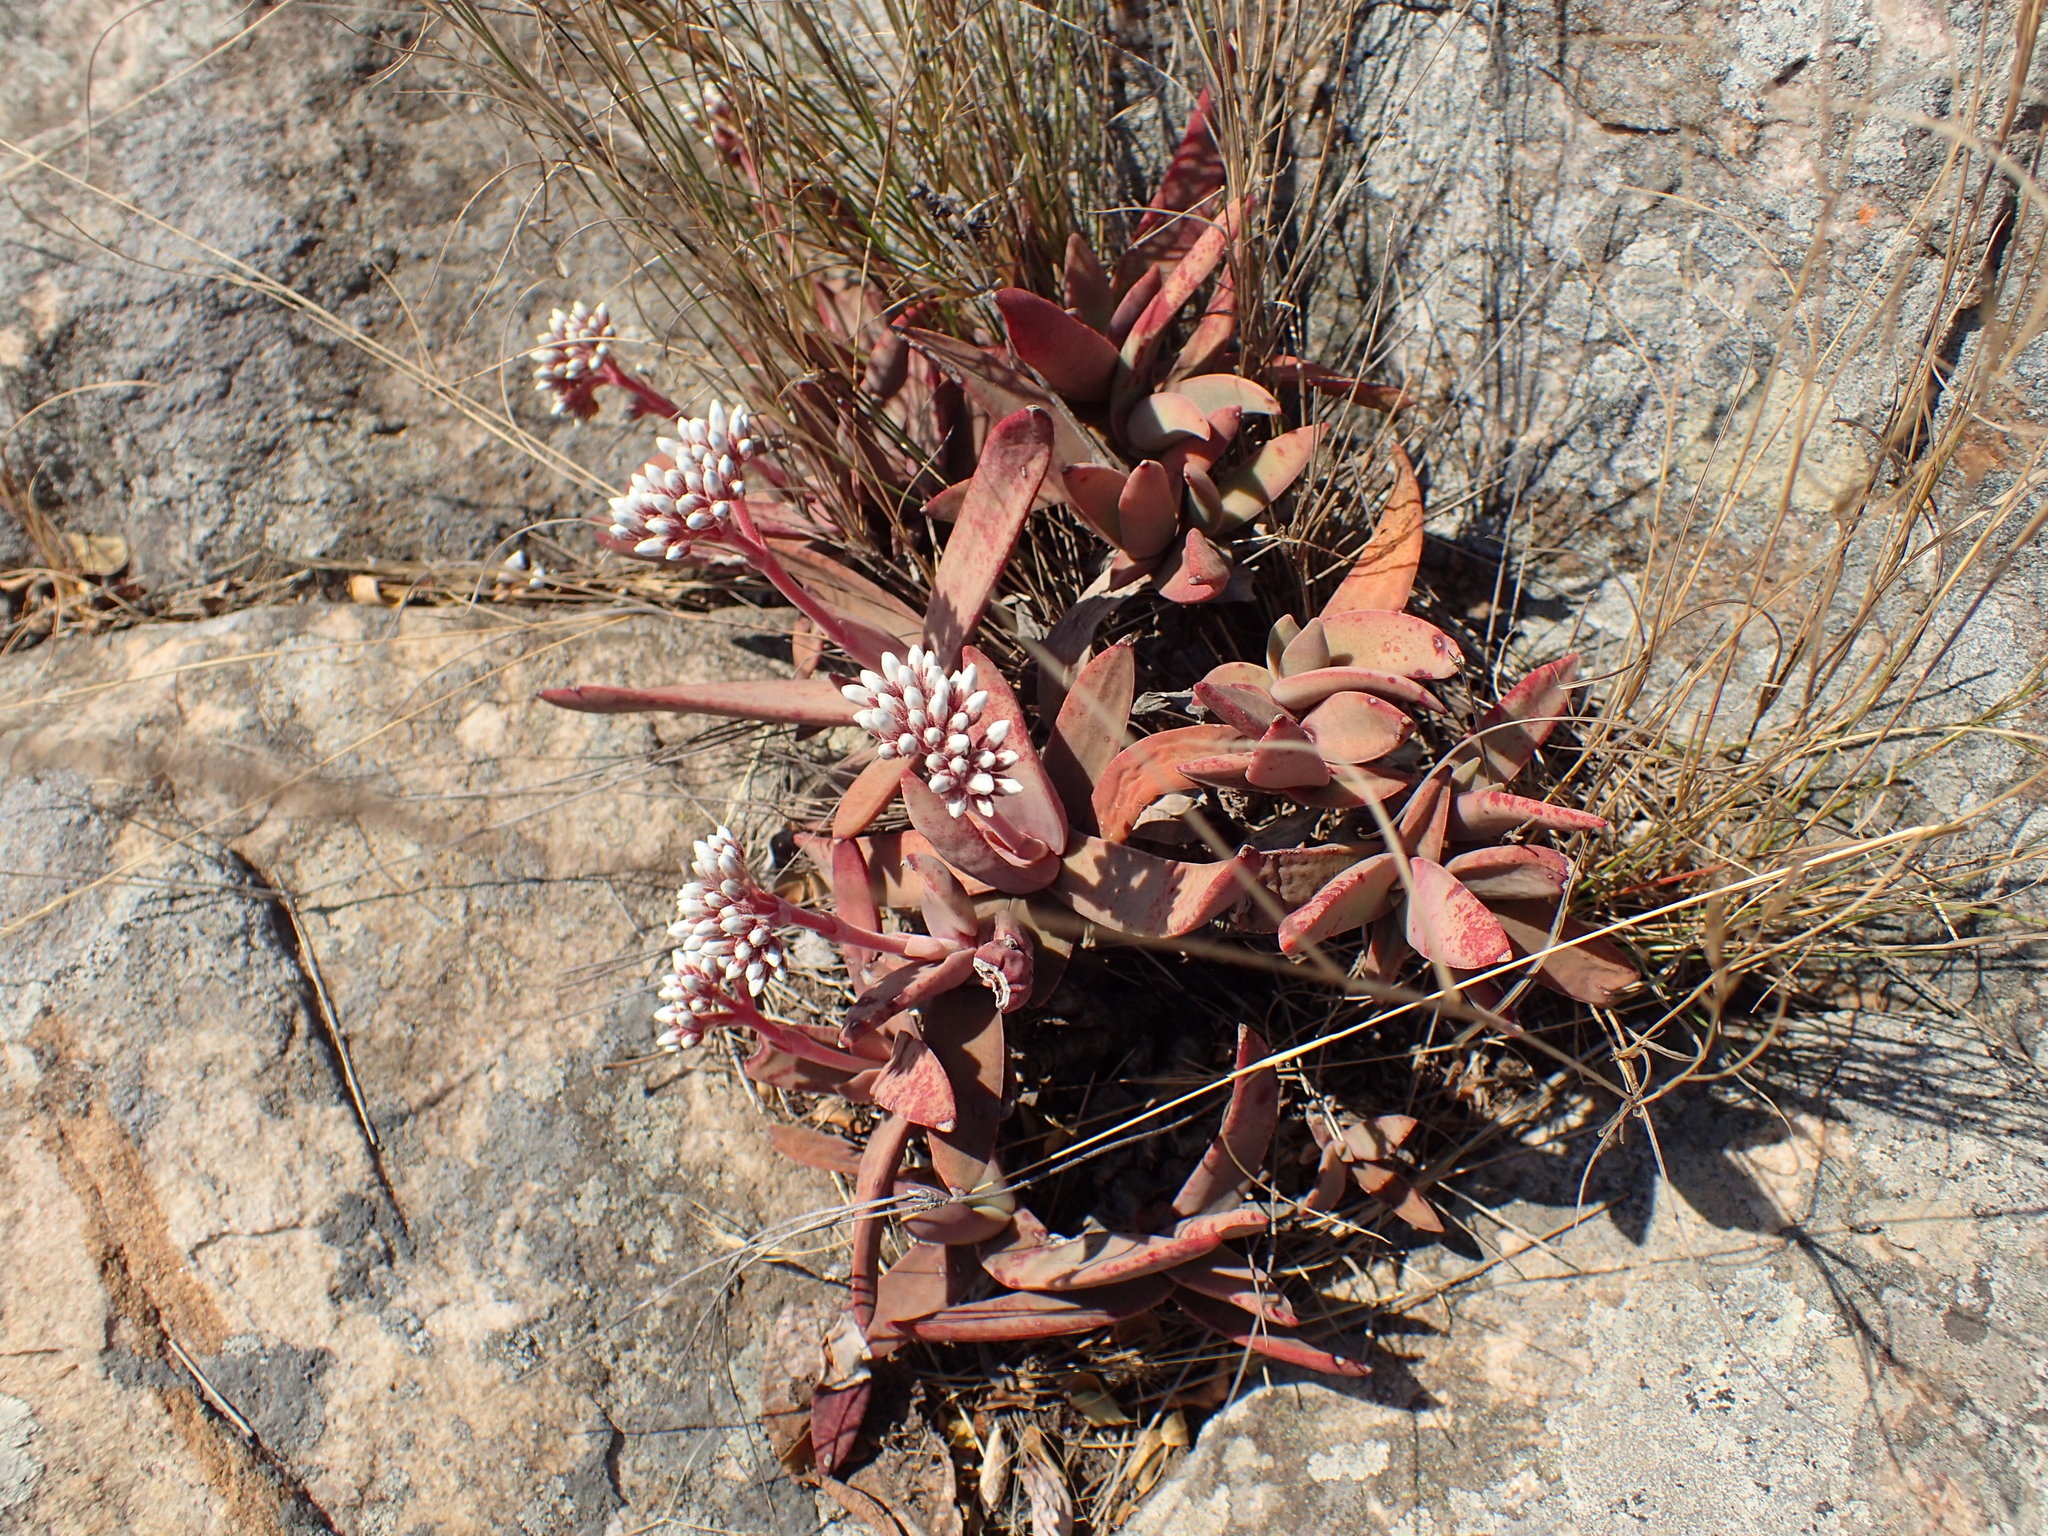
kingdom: Plantae
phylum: Tracheophyta
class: Magnoliopsida
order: Saxifragales
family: Crassulaceae
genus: Crassula
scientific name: Crassula perfoliata
